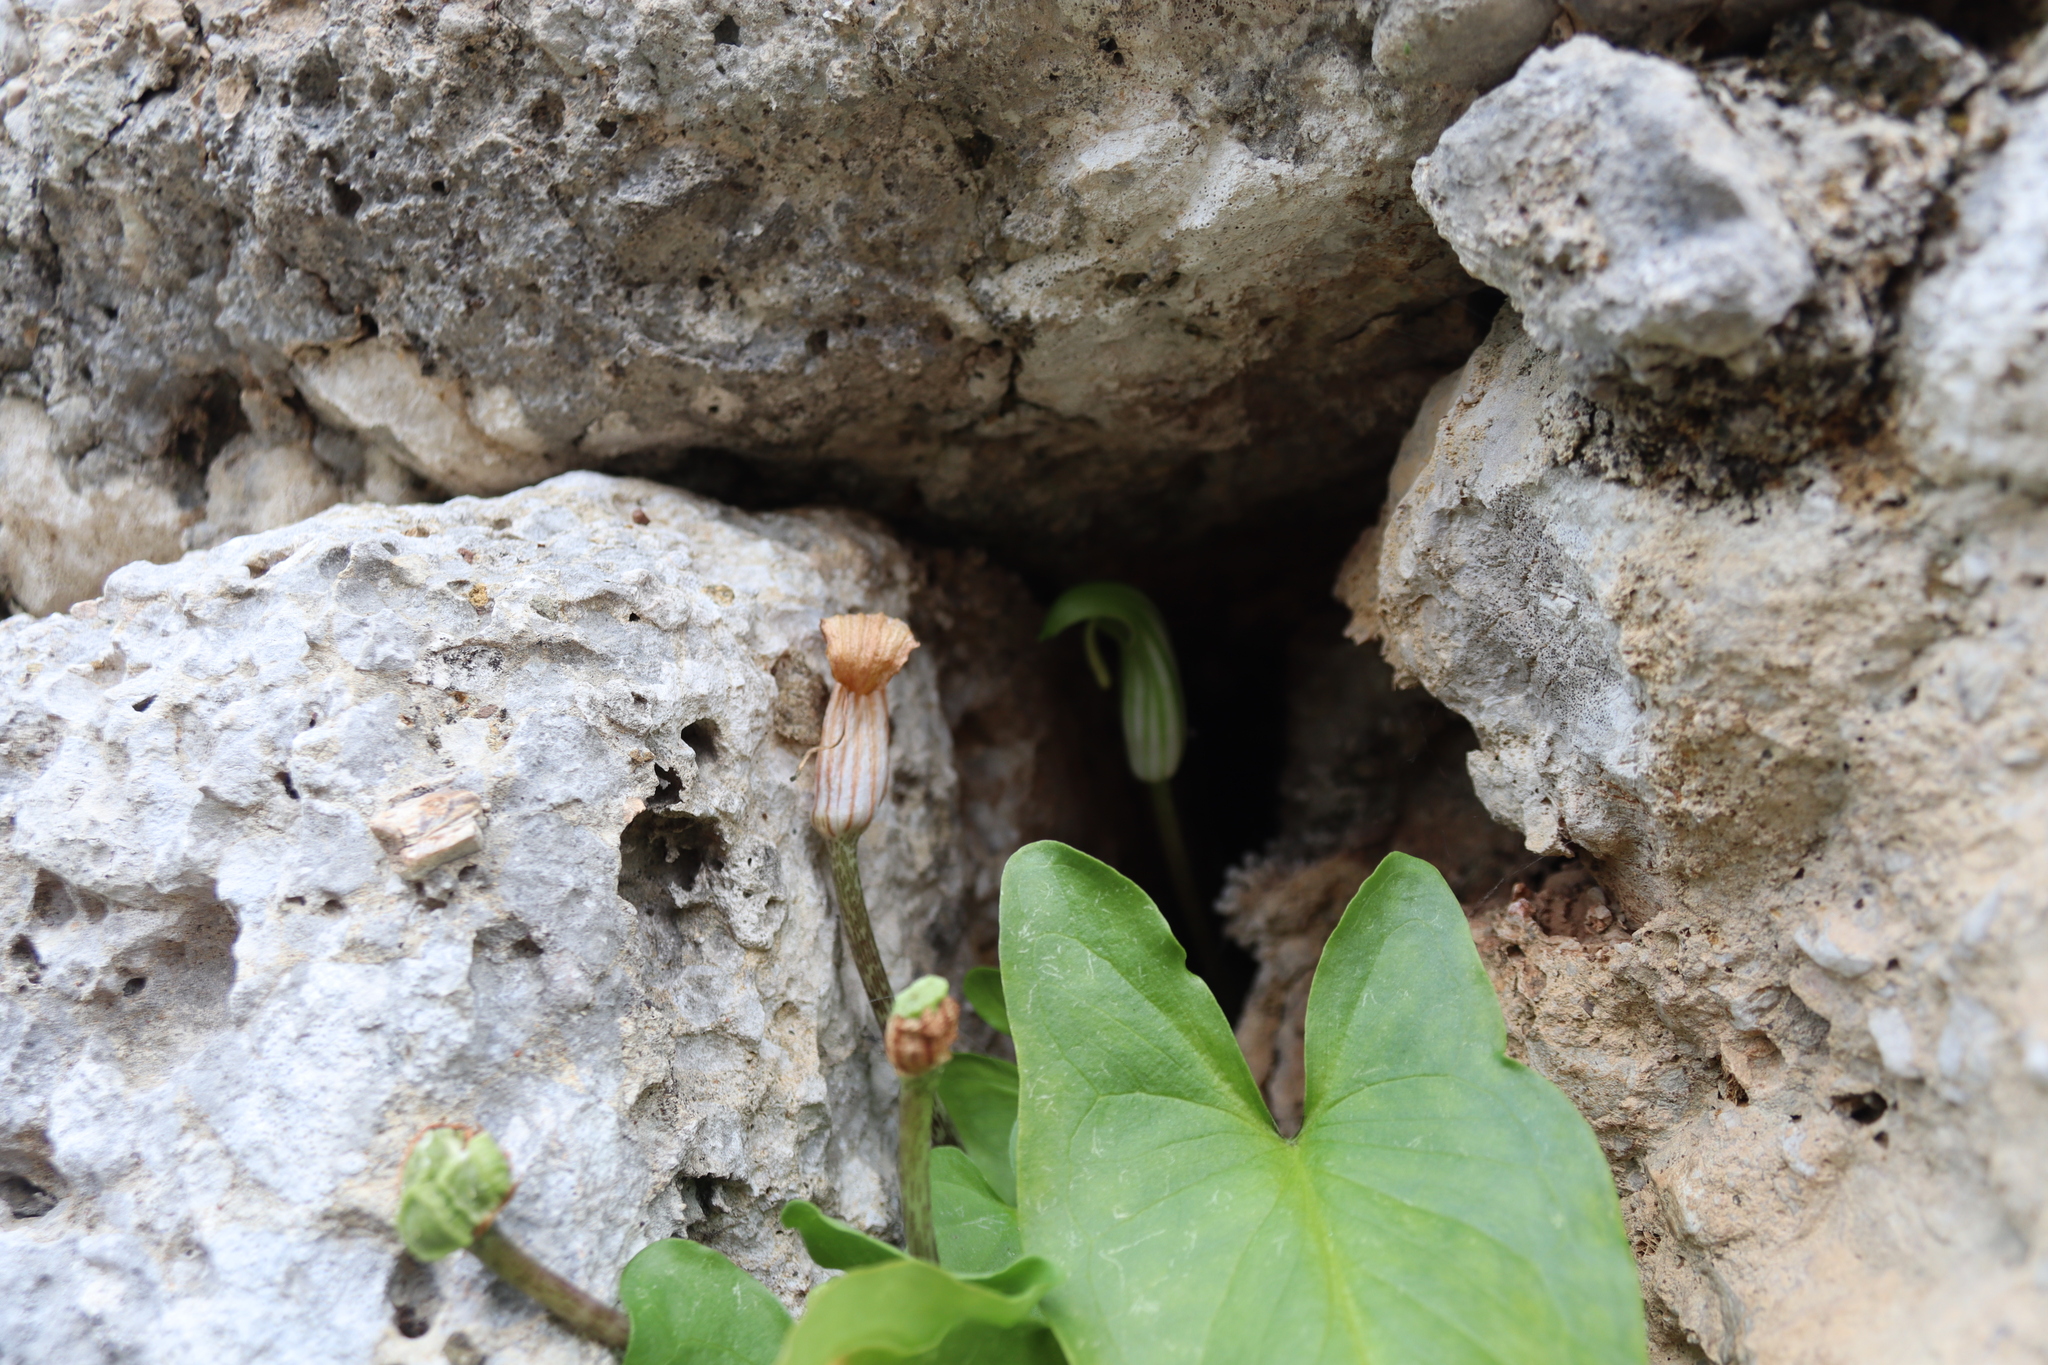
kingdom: Plantae
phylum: Tracheophyta
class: Liliopsida
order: Alismatales
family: Araceae
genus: Arisarum
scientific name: Arisarum vulgare
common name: Common arisarum
